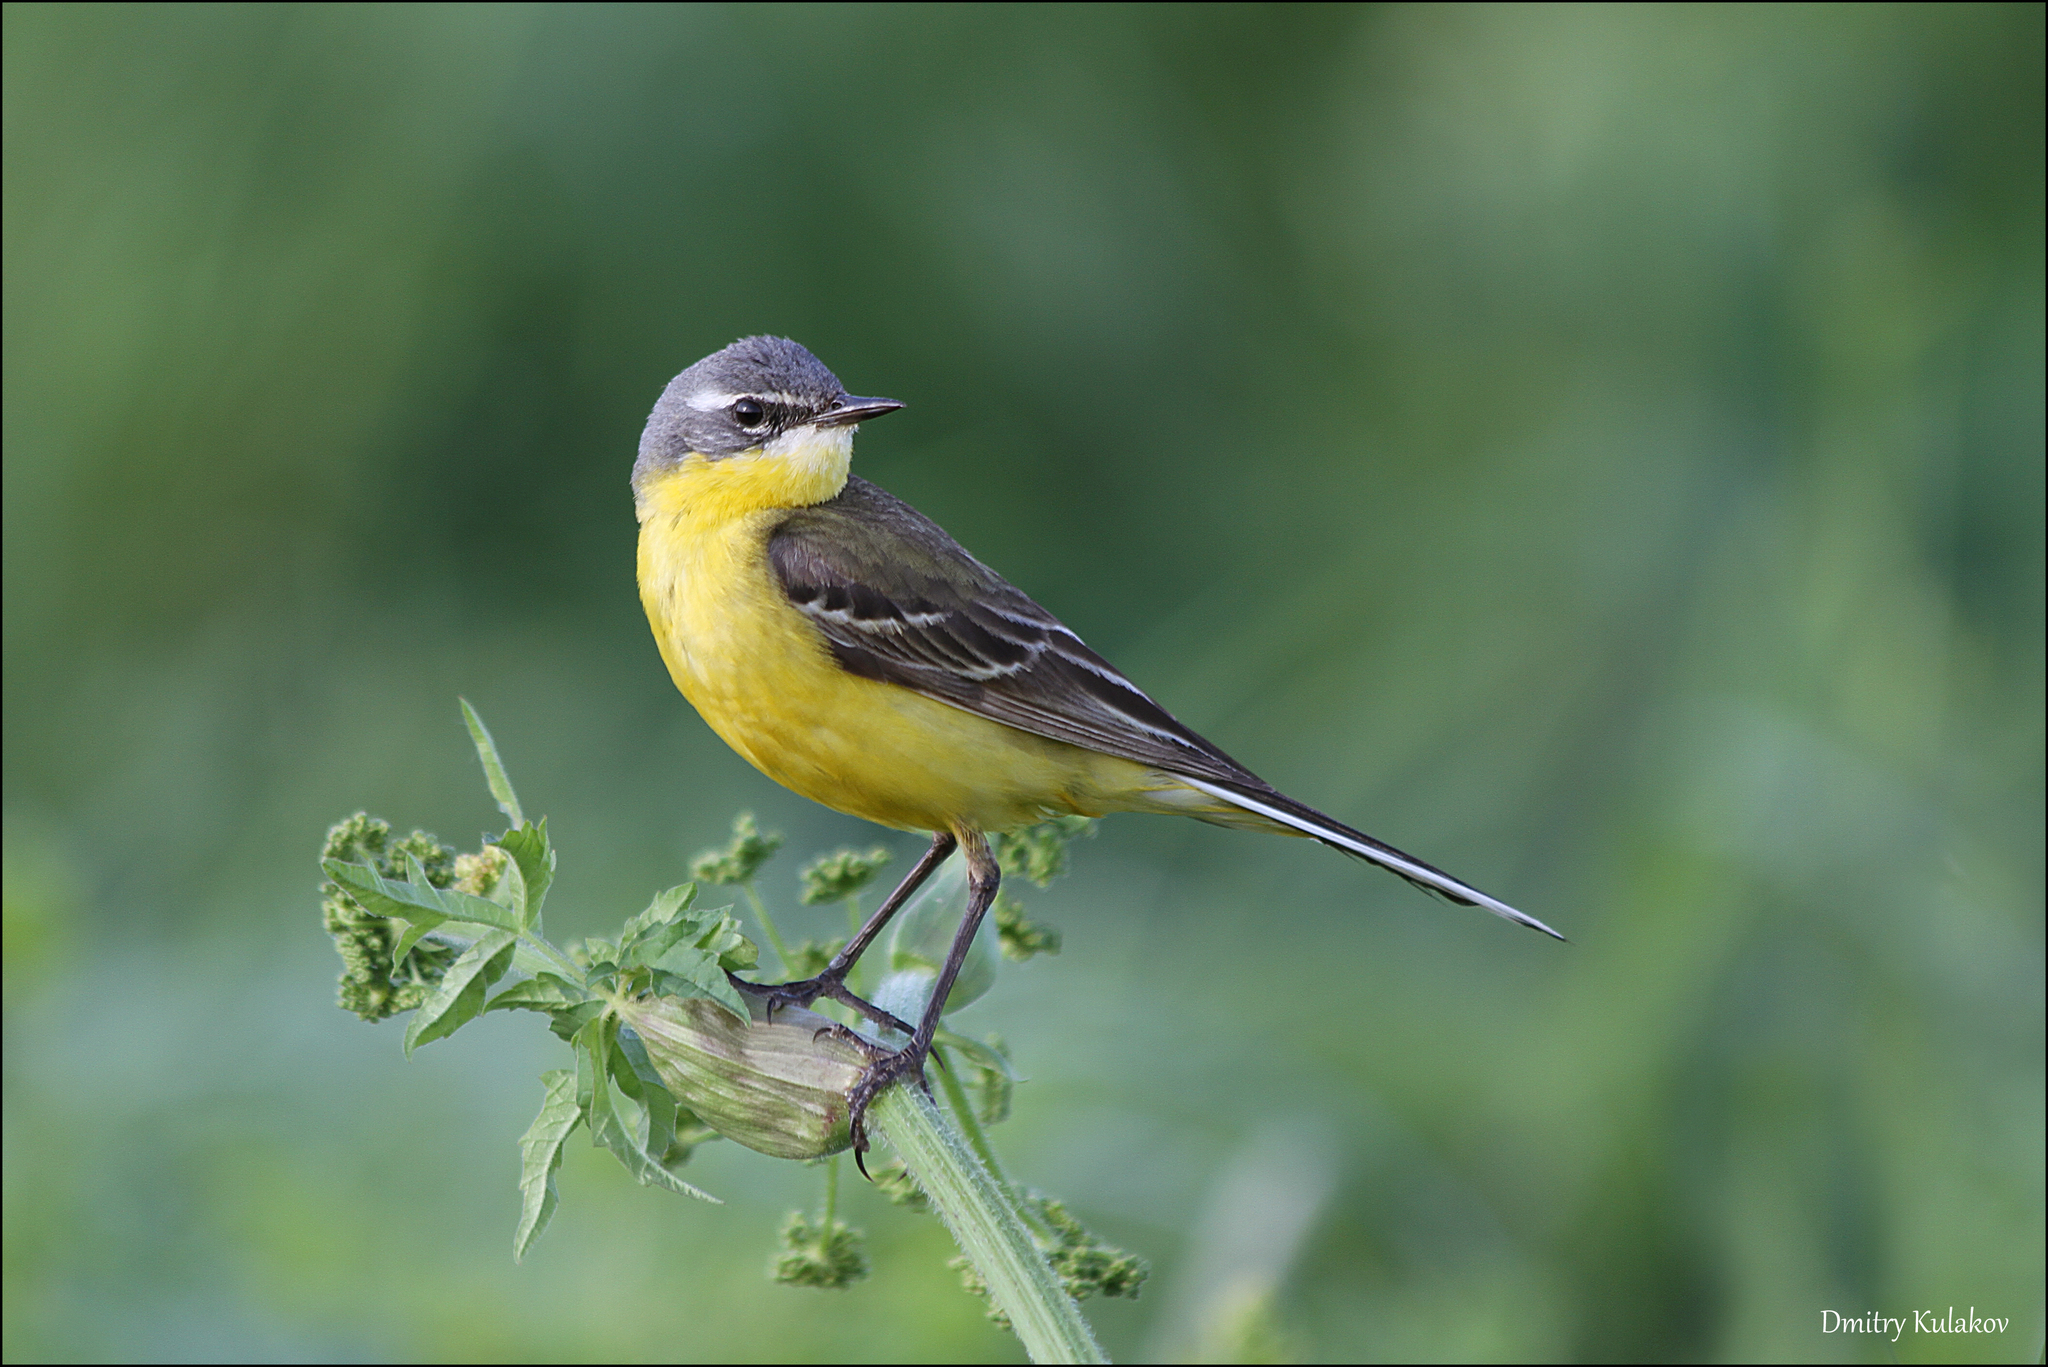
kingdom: Animalia
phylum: Chordata
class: Aves
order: Passeriformes
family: Motacillidae
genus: Motacilla
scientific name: Motacilla flava
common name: Western yellow wagtail
